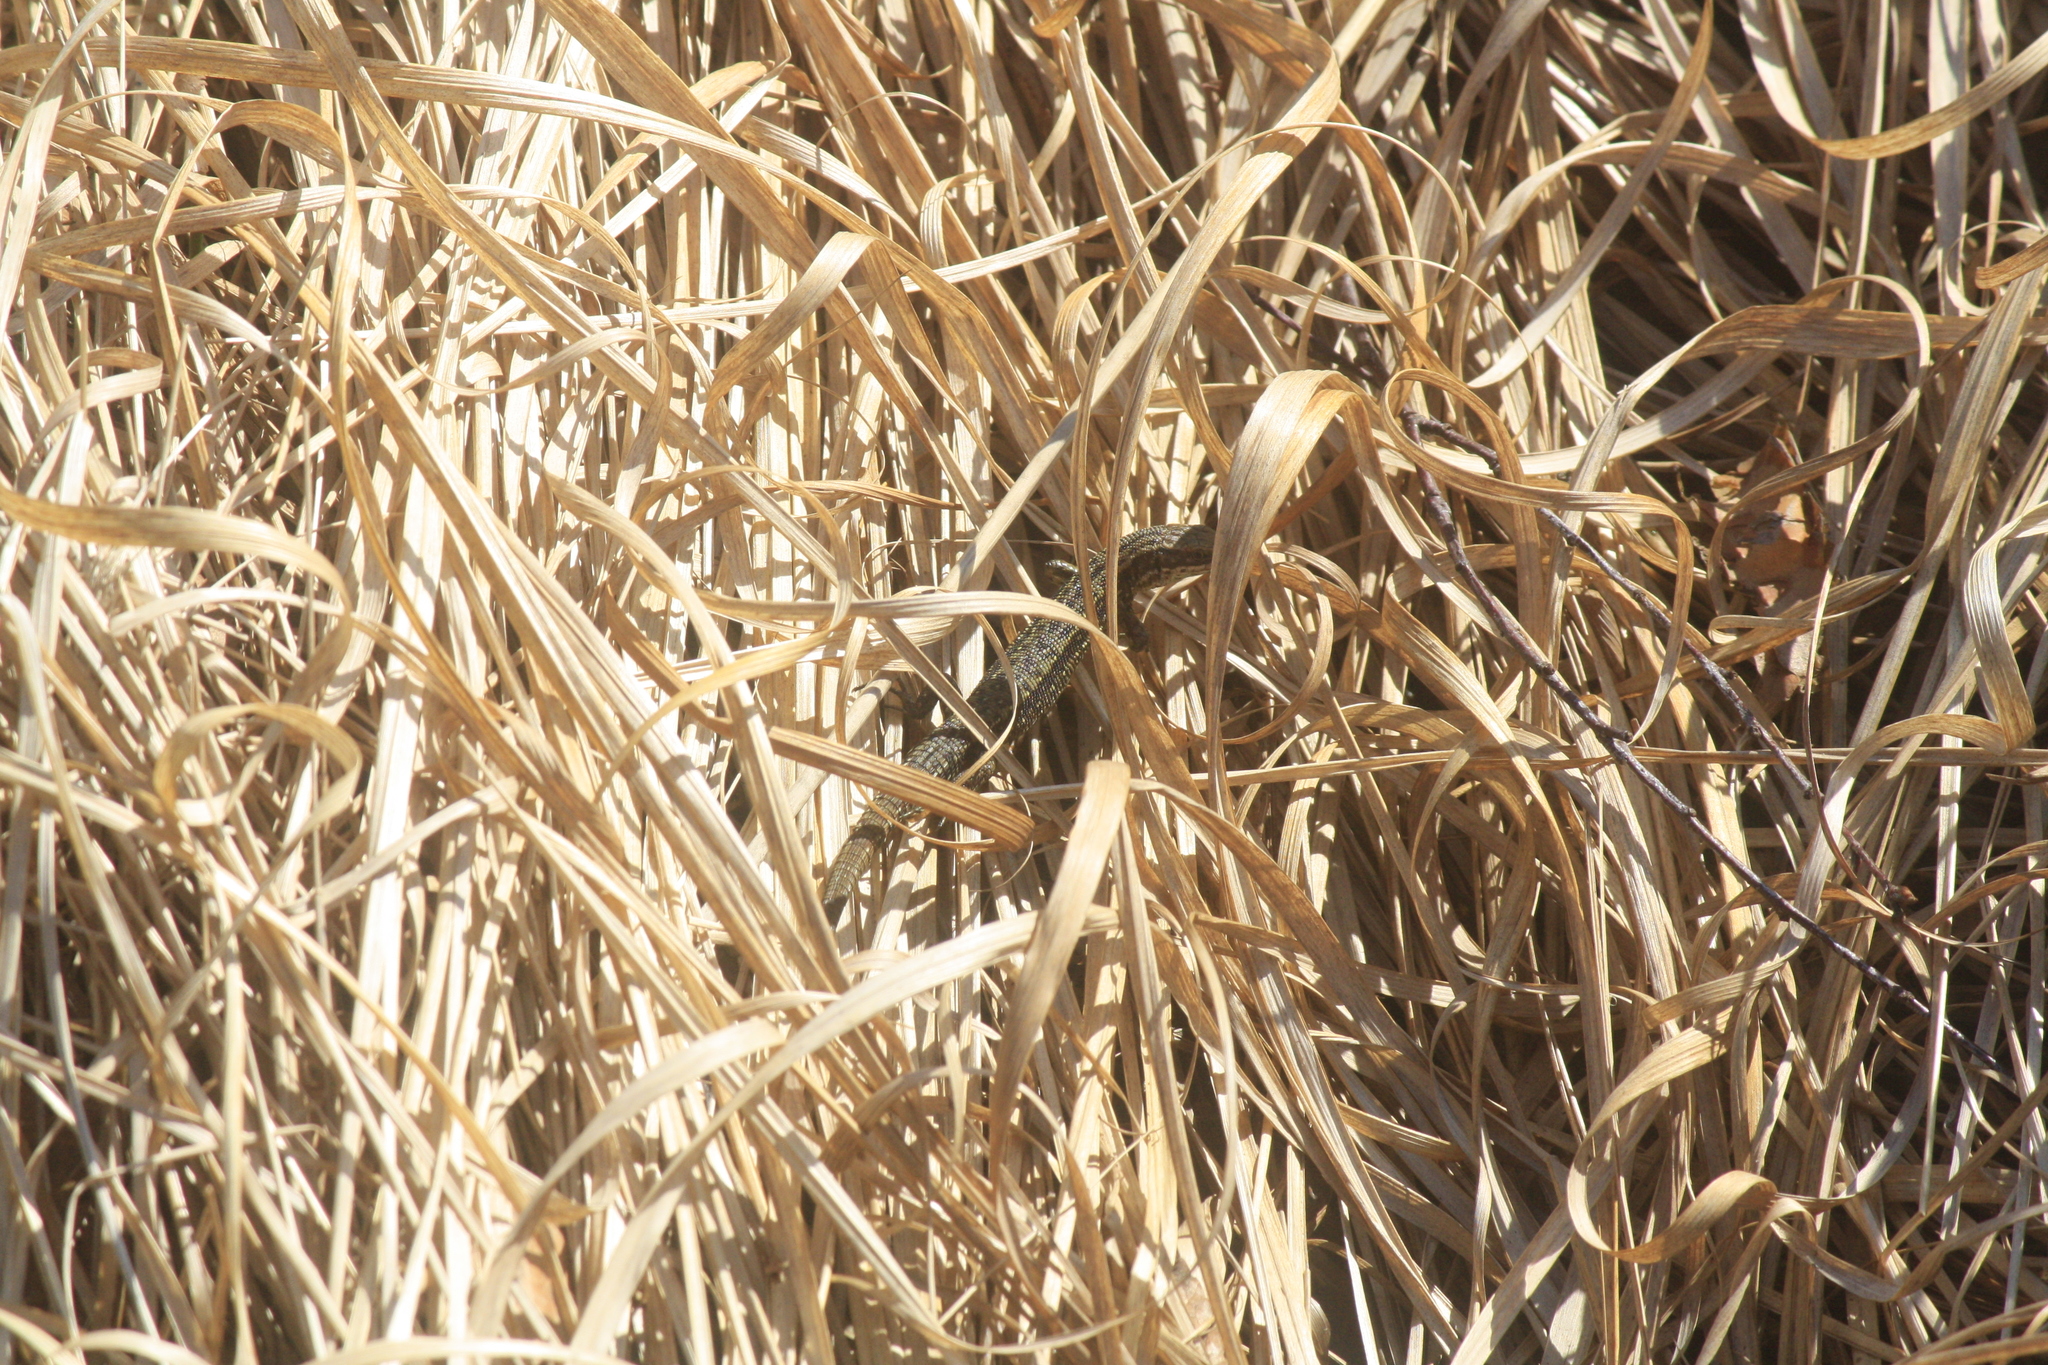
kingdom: Animalia
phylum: Chordata
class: Squamata
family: Lacertidae
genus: Zootoca
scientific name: Zootoca vivipara
